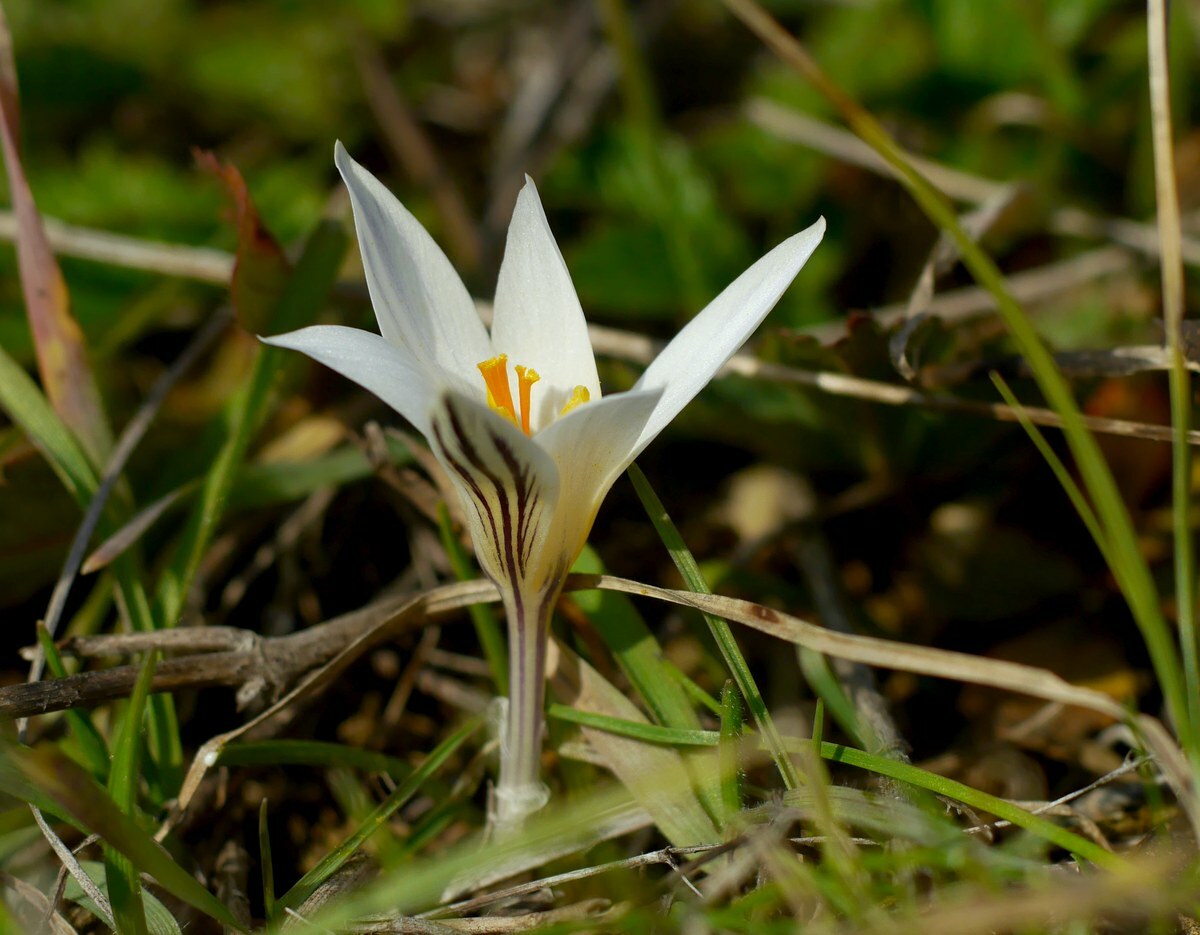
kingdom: Plantae
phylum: Tracheophyta
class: Liliopsida
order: Asparagales
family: Iridaceae
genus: Crocus
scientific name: Crocus reticulatus
